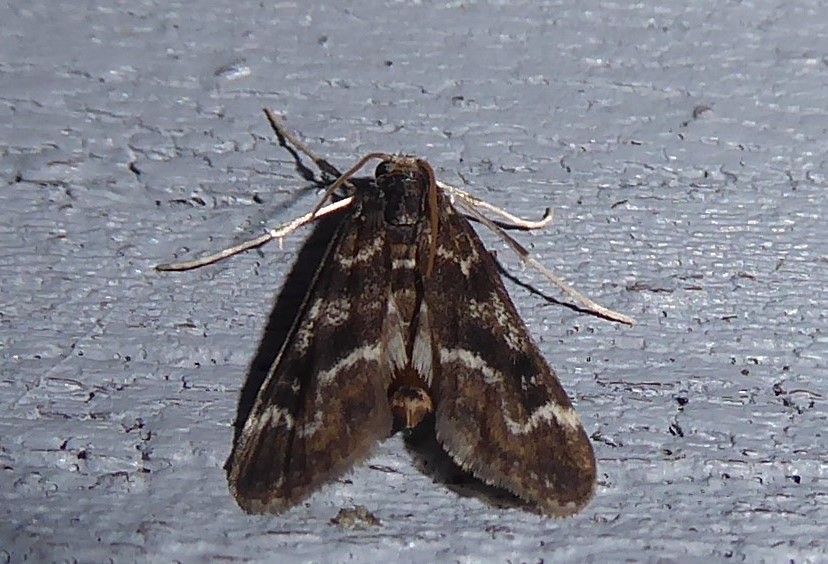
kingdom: Animalia
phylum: Arthropoda
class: Insecta
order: Lepidoptera
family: Crambidae
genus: Hygraula
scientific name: Hygraula nitens
